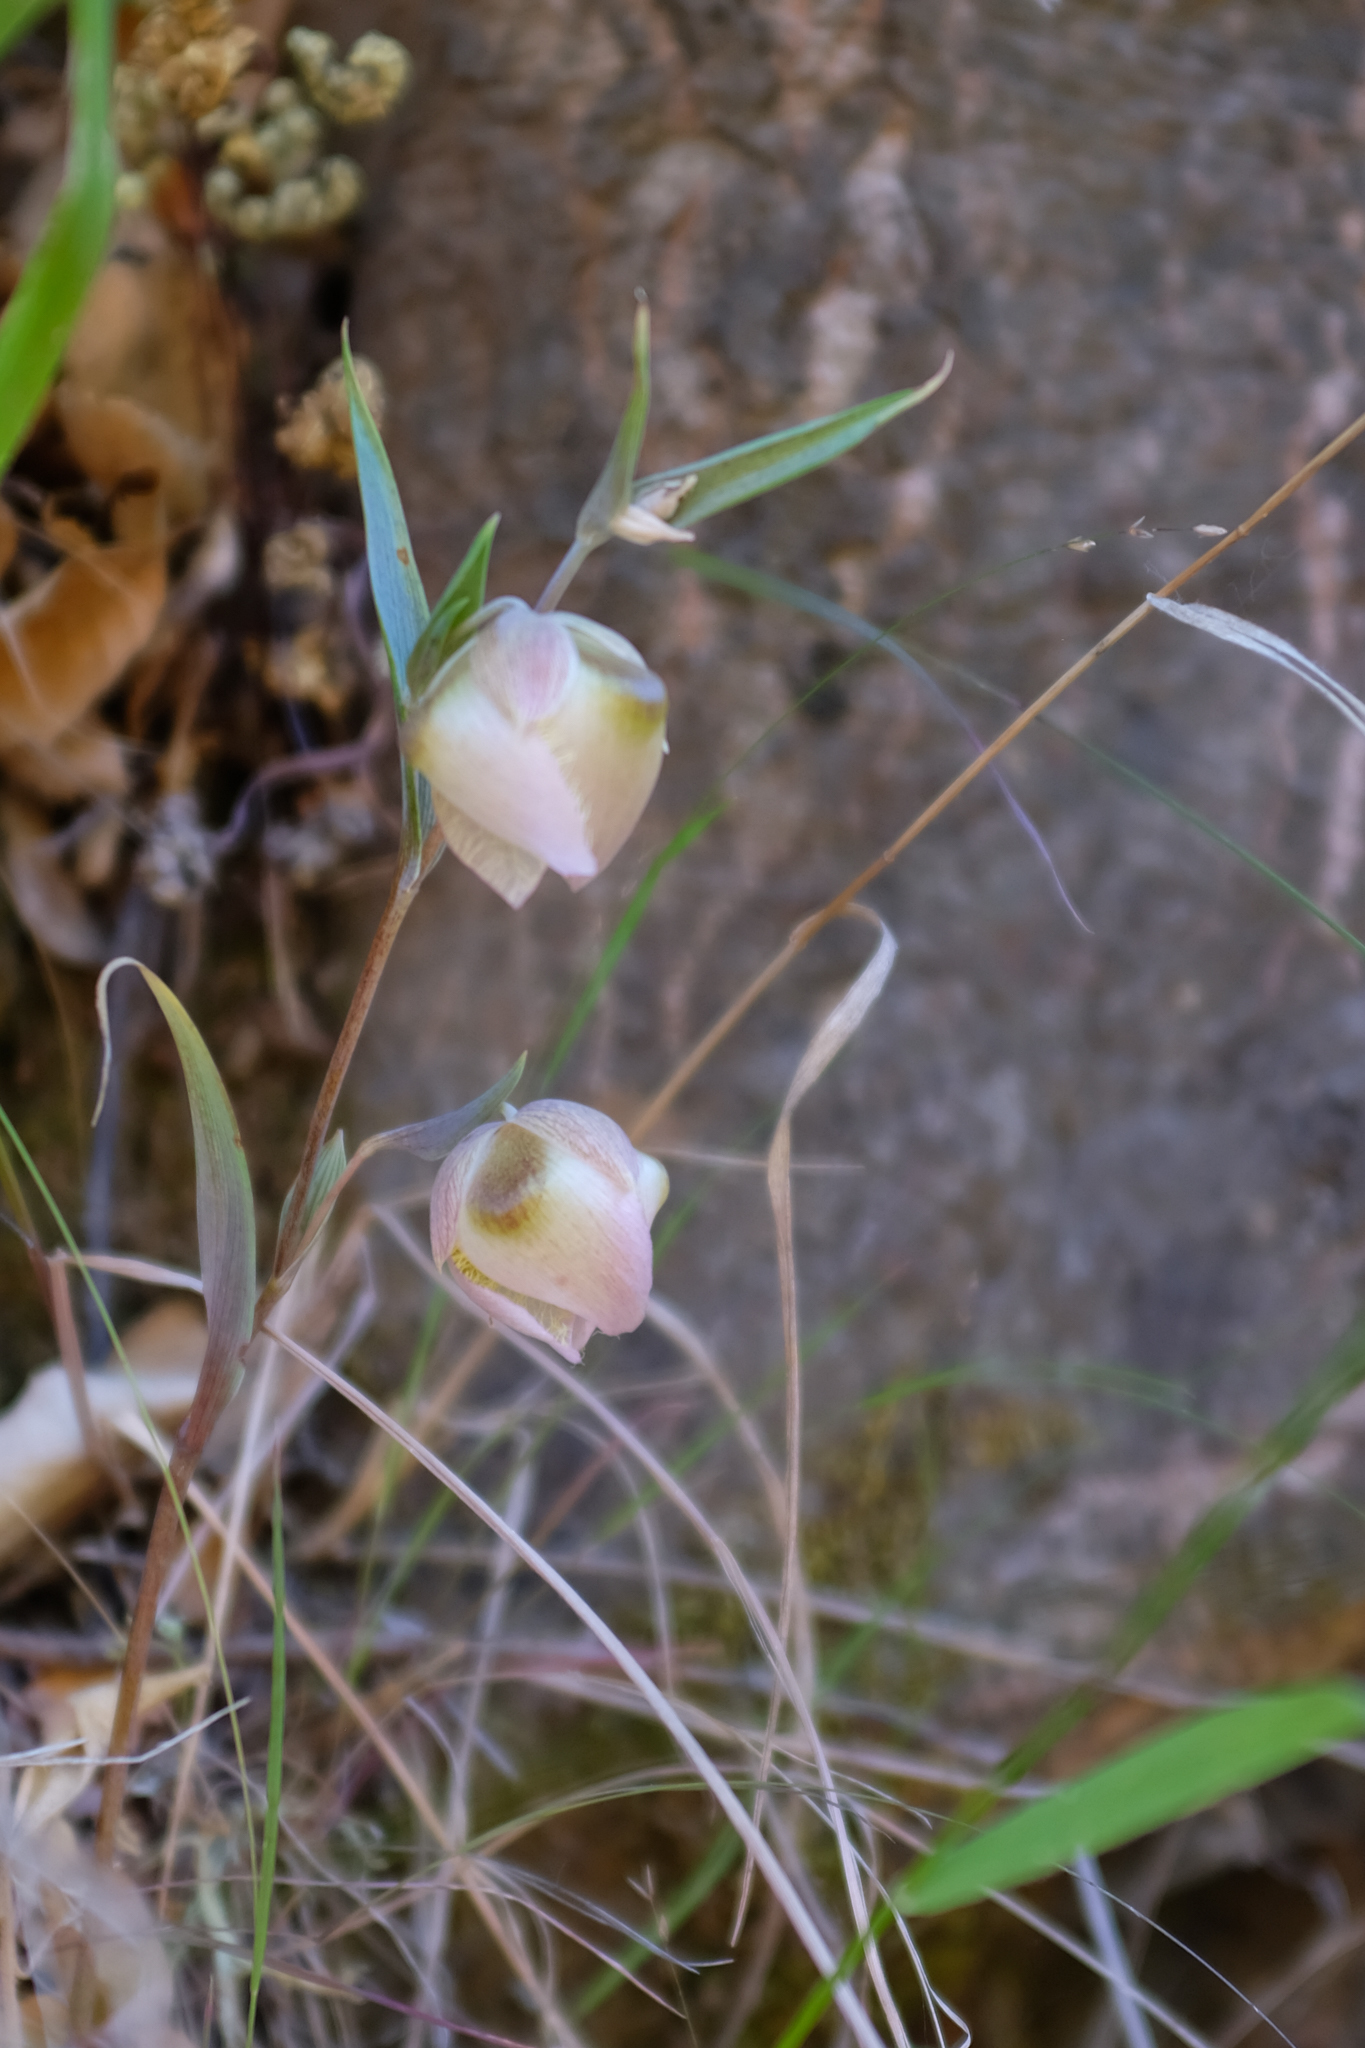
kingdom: Plantae
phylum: Tracheophyta
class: Liliopsida
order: Liliales
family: Liliaceae
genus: Calochortus
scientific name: Calochortus albus
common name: Fairy-lantern
